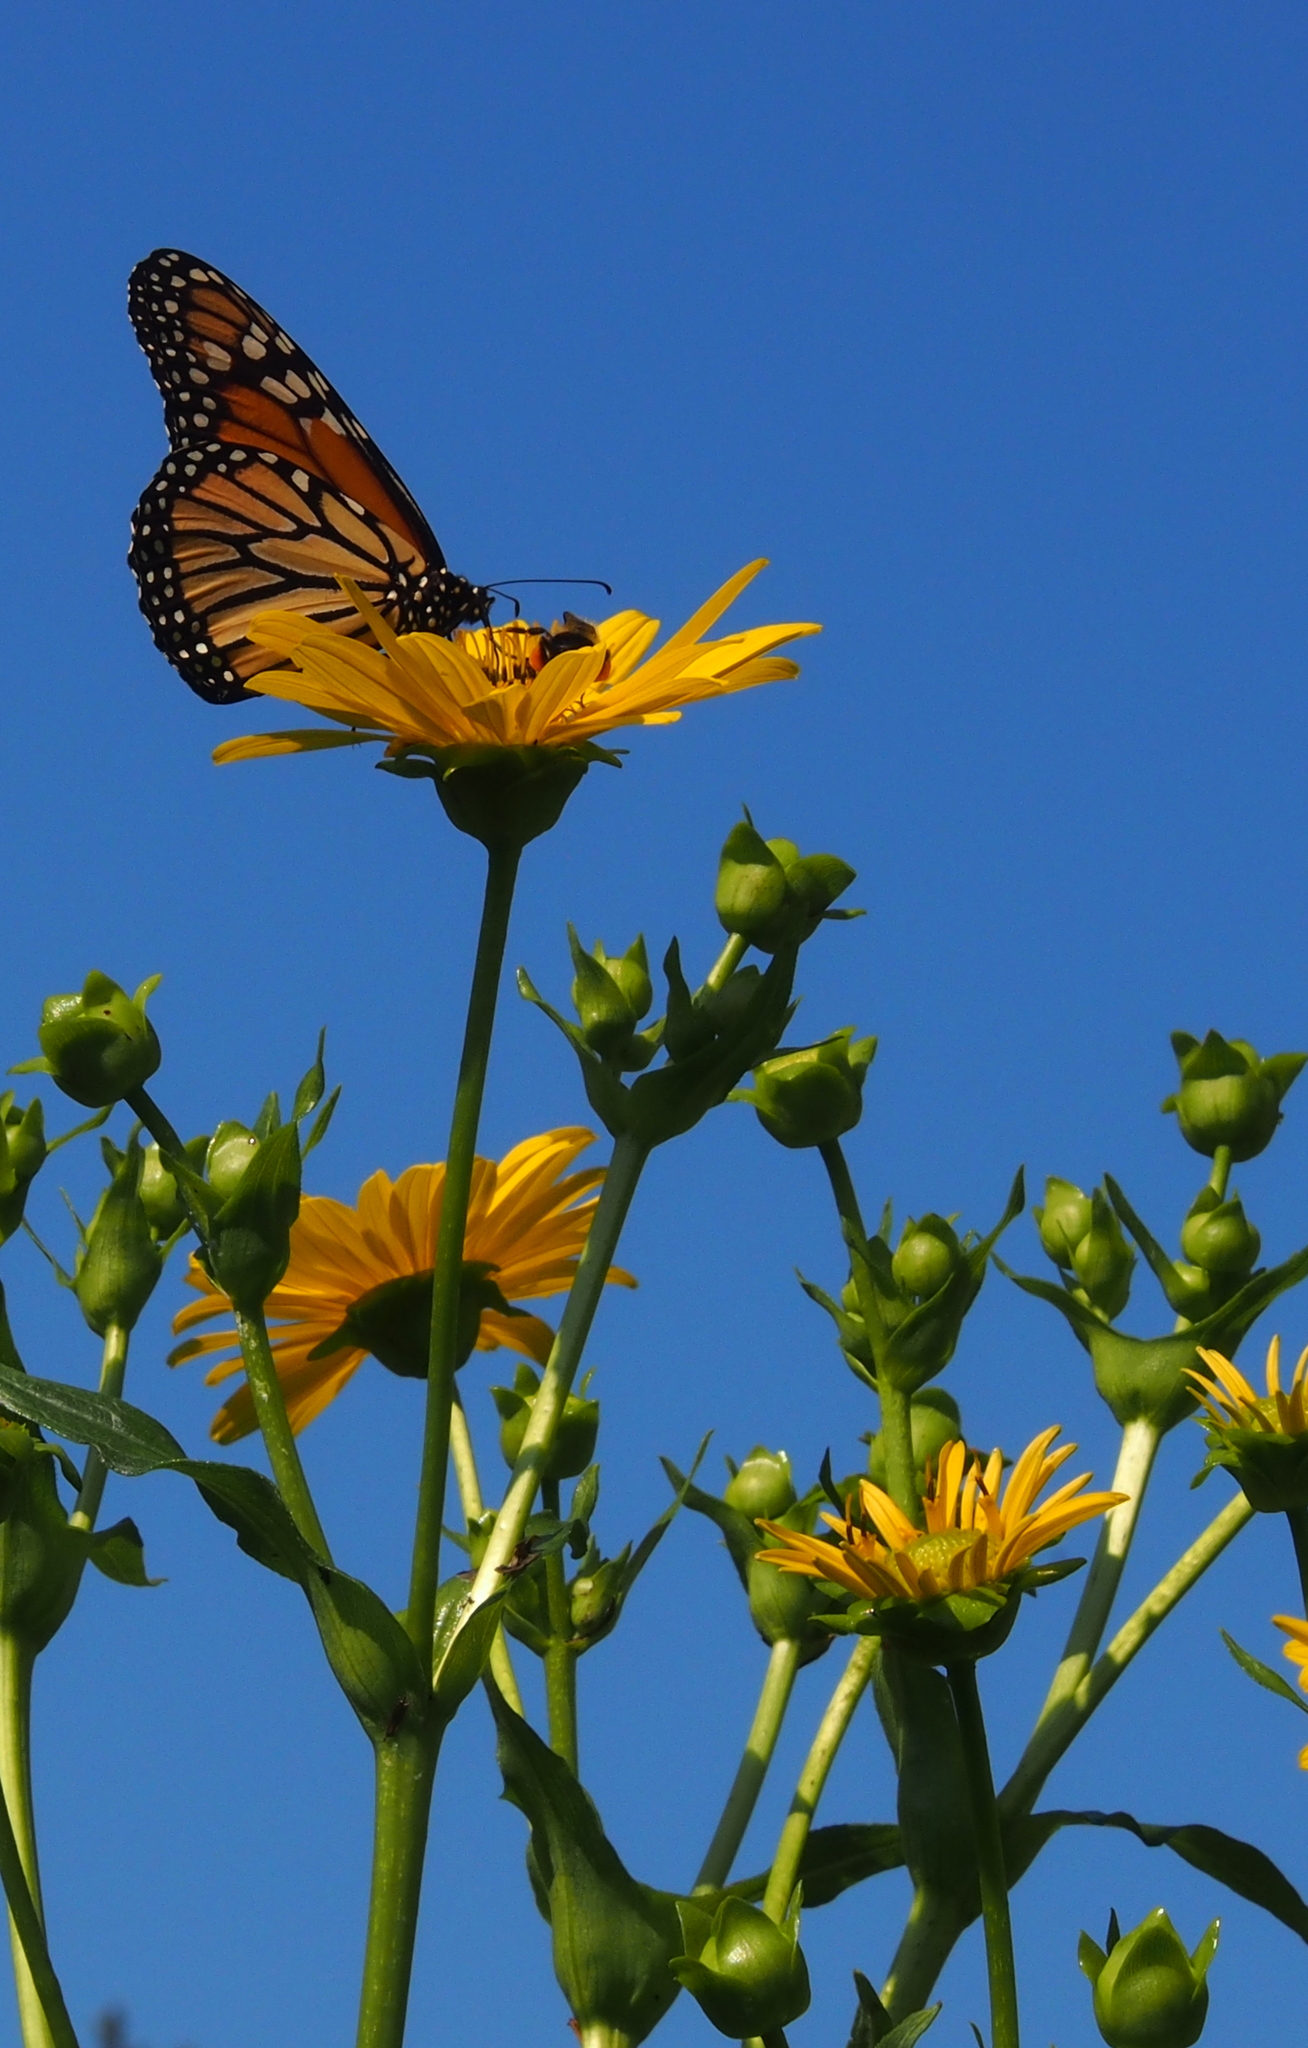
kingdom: Animalia
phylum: Arthropoda
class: Insecta
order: Lepidoptera
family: Nymphalidae
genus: Danaus
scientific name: Danaus plexippus
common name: Monarch
